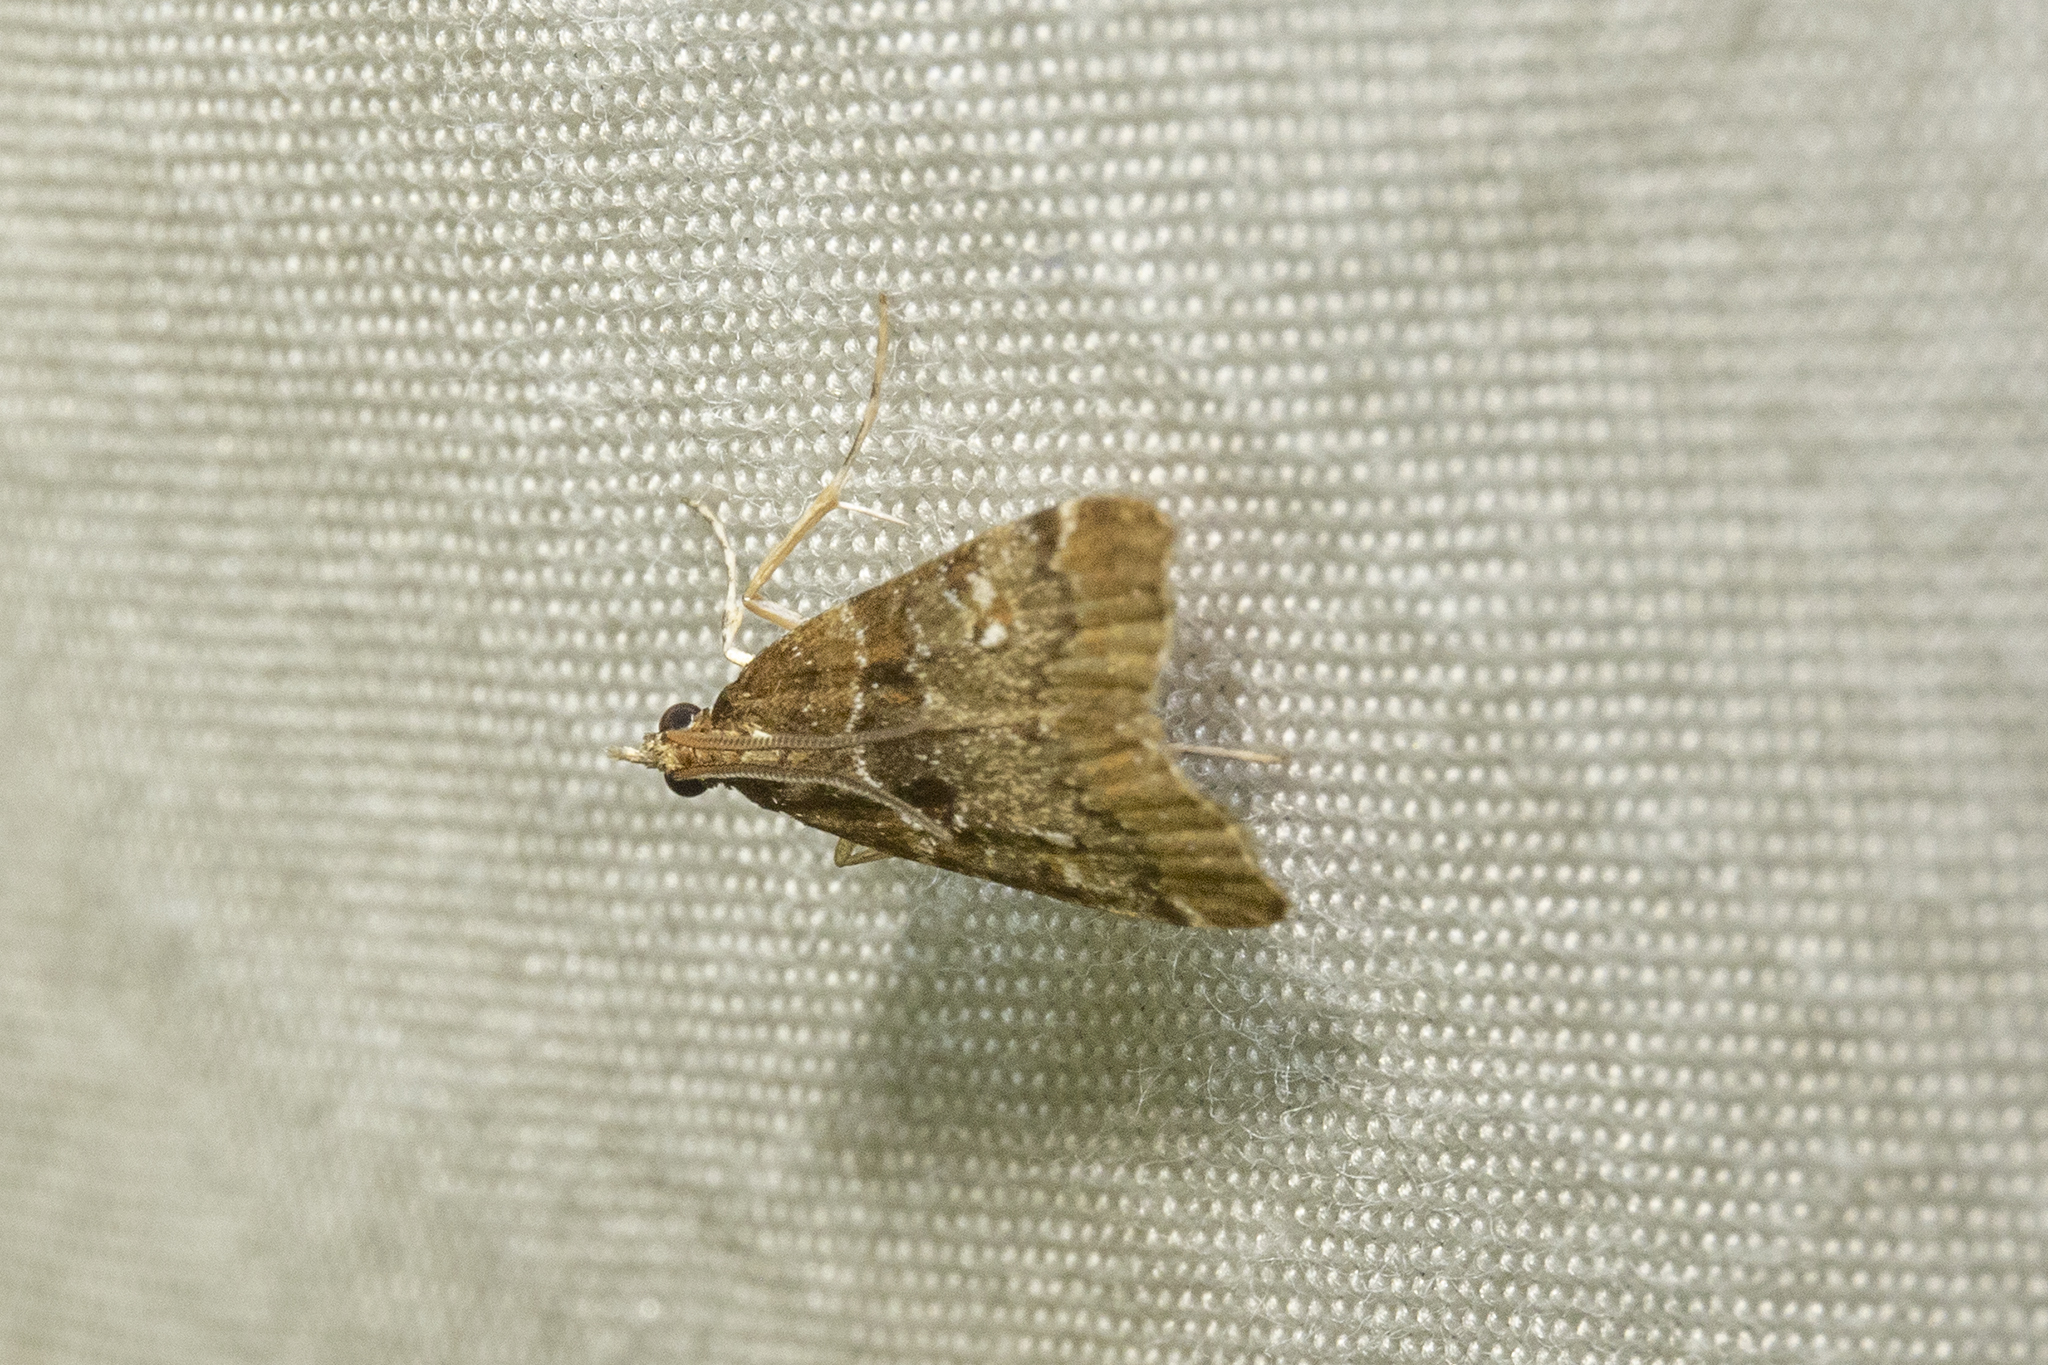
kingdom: Animalia
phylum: Arthropoda
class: Insecta
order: Lepidoptera
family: Crambidae
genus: Antiscopa
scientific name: Antiscopa acompa
